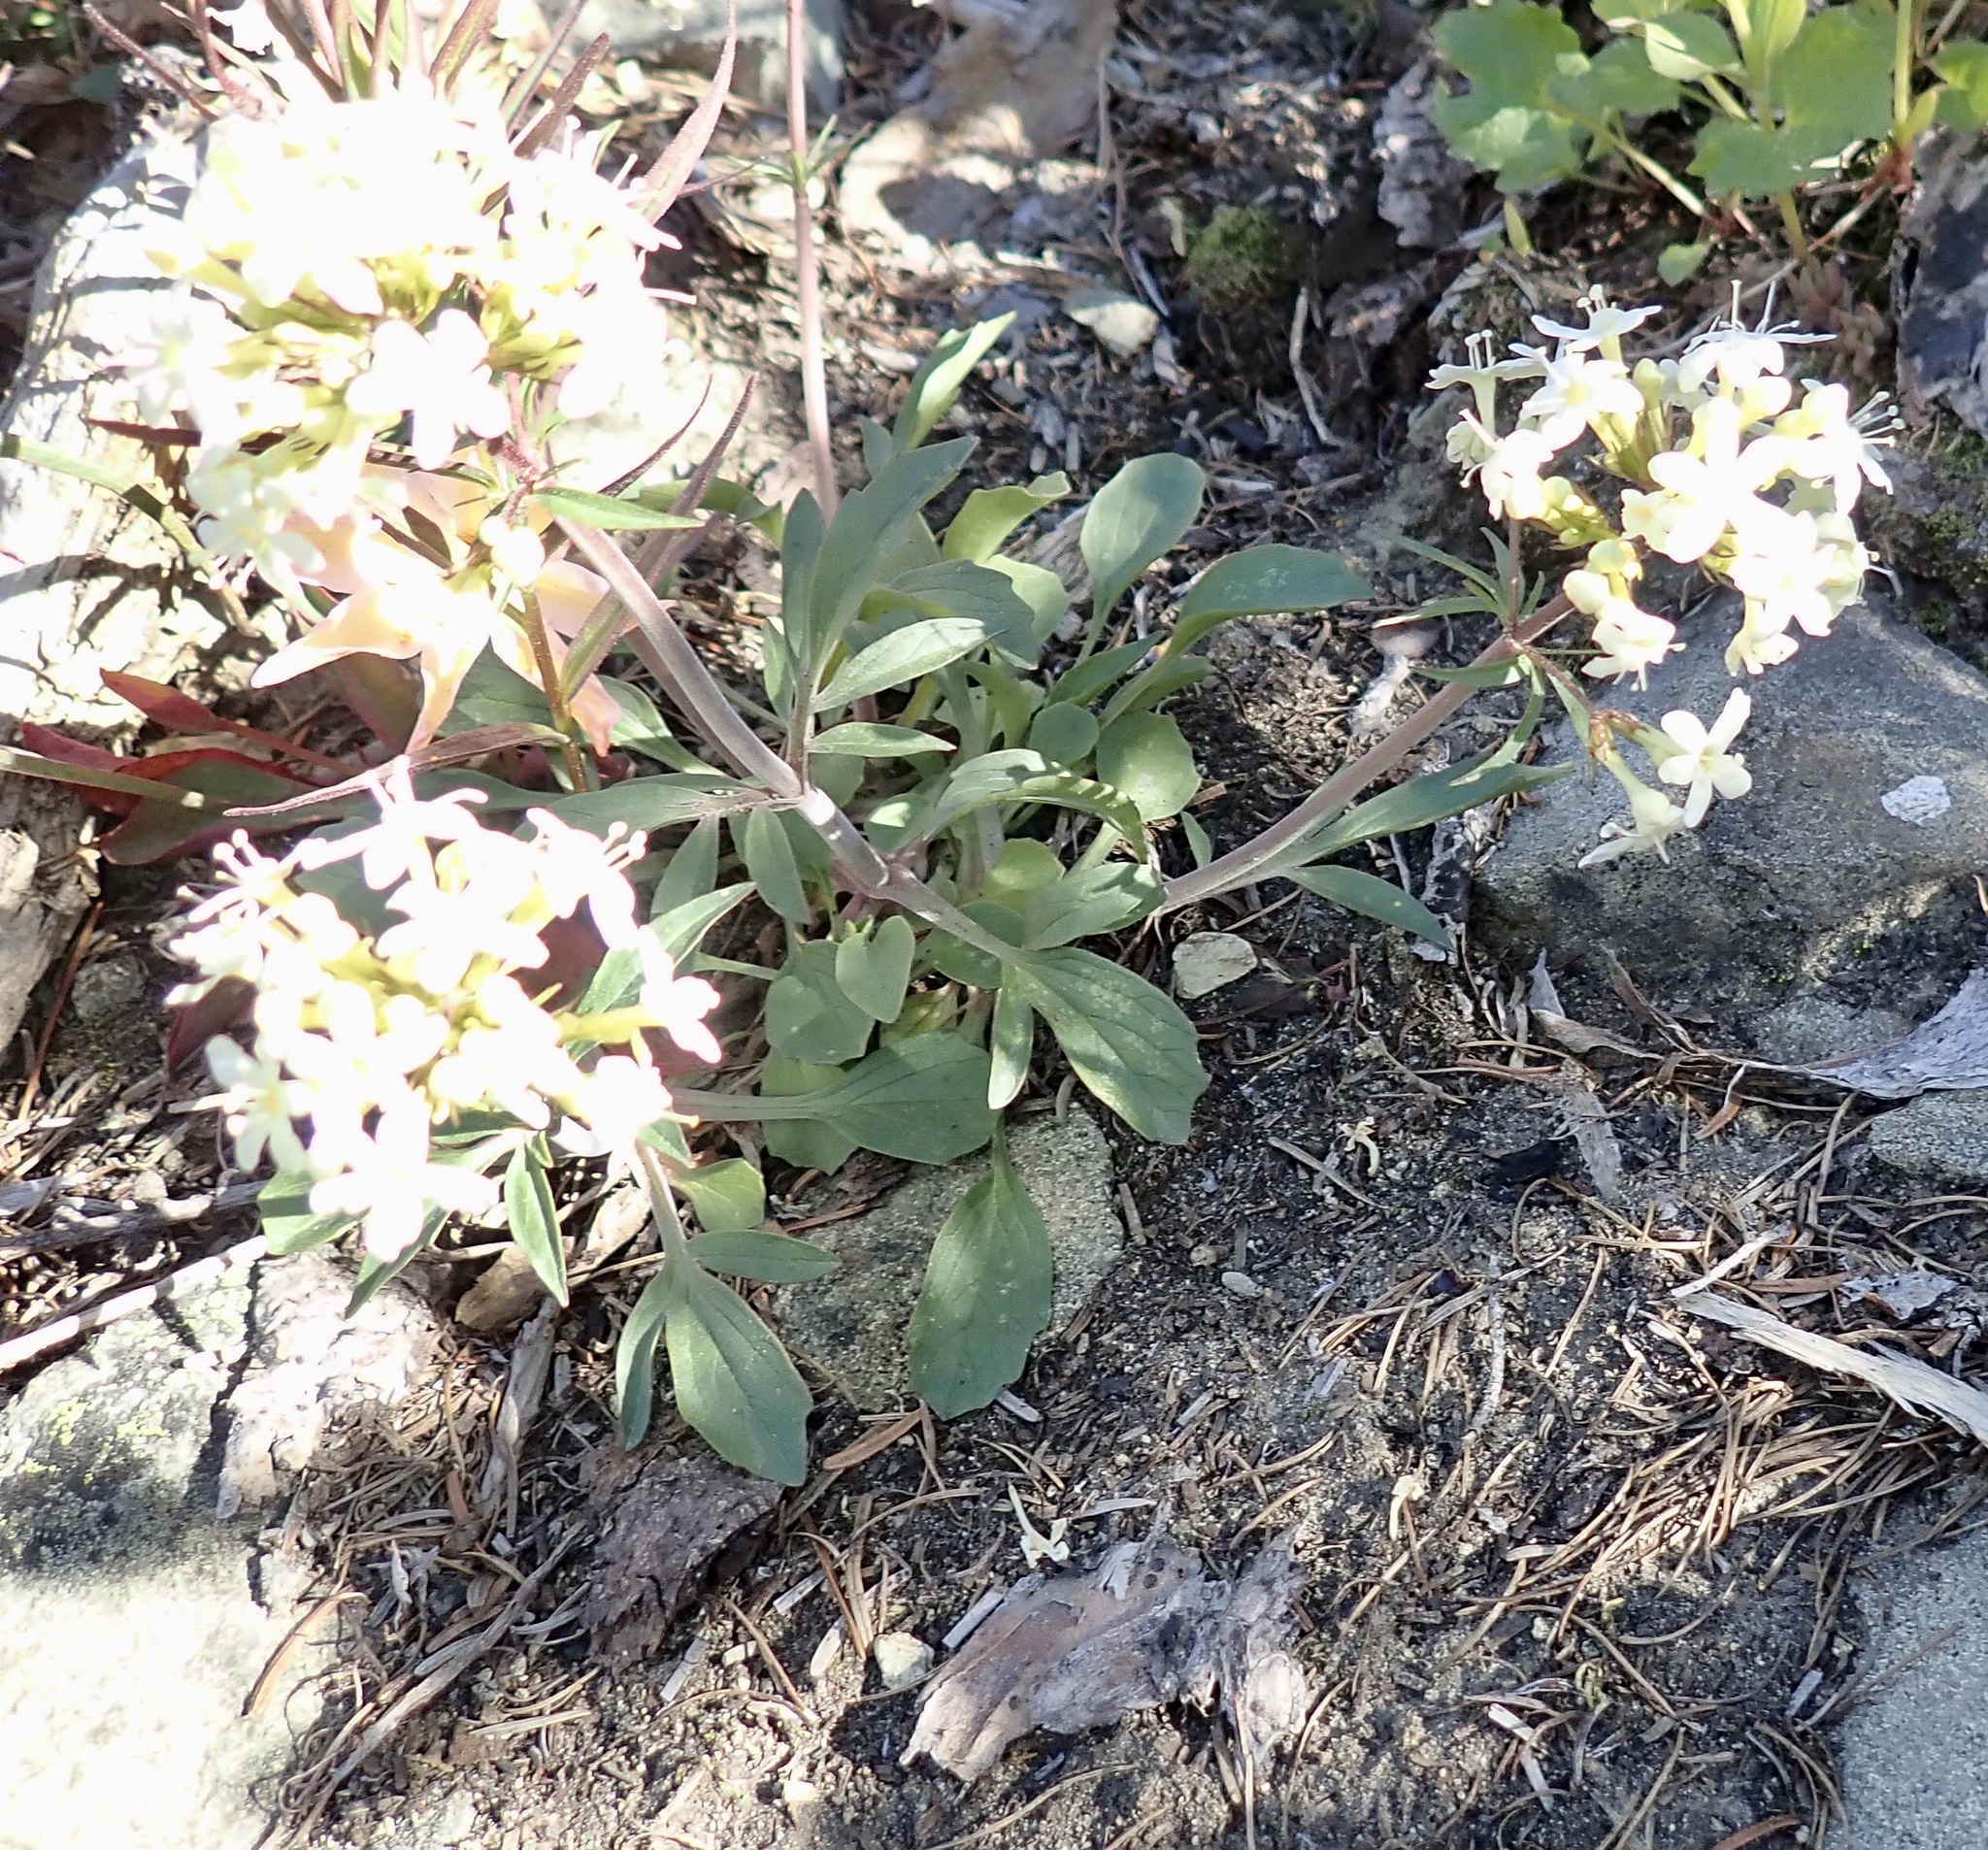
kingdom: Plantae
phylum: Tracheophyta
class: Magnoliopsida
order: Dipsacales
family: Caprifoliaceae
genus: Valeriana
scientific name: Valeriana columbiana
